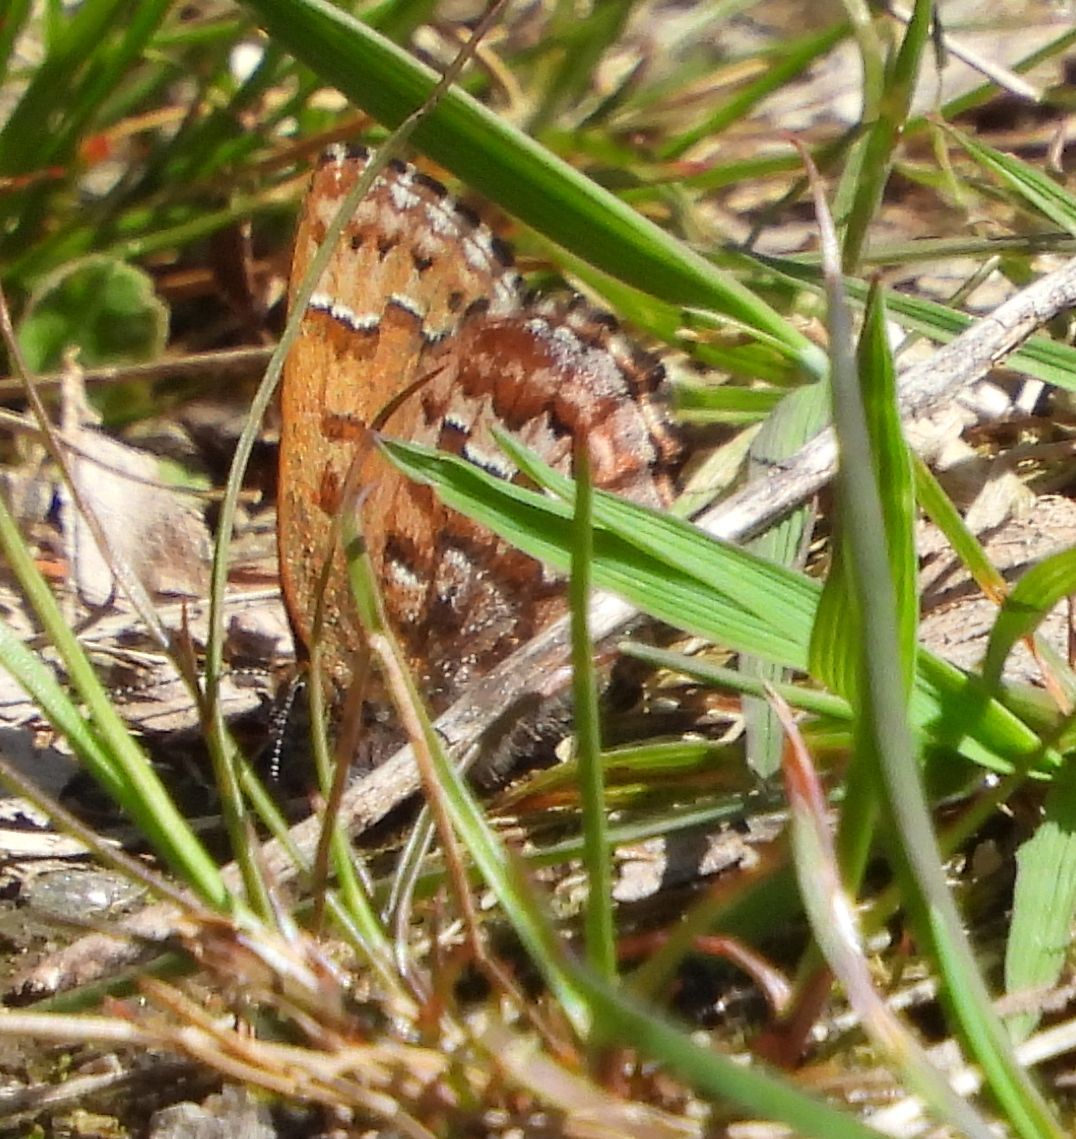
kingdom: Animalia
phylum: Arthropoda
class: Insecta
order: Lepidoptera
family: Lycaenidae
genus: Incisalia
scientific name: Incisalia niphon
